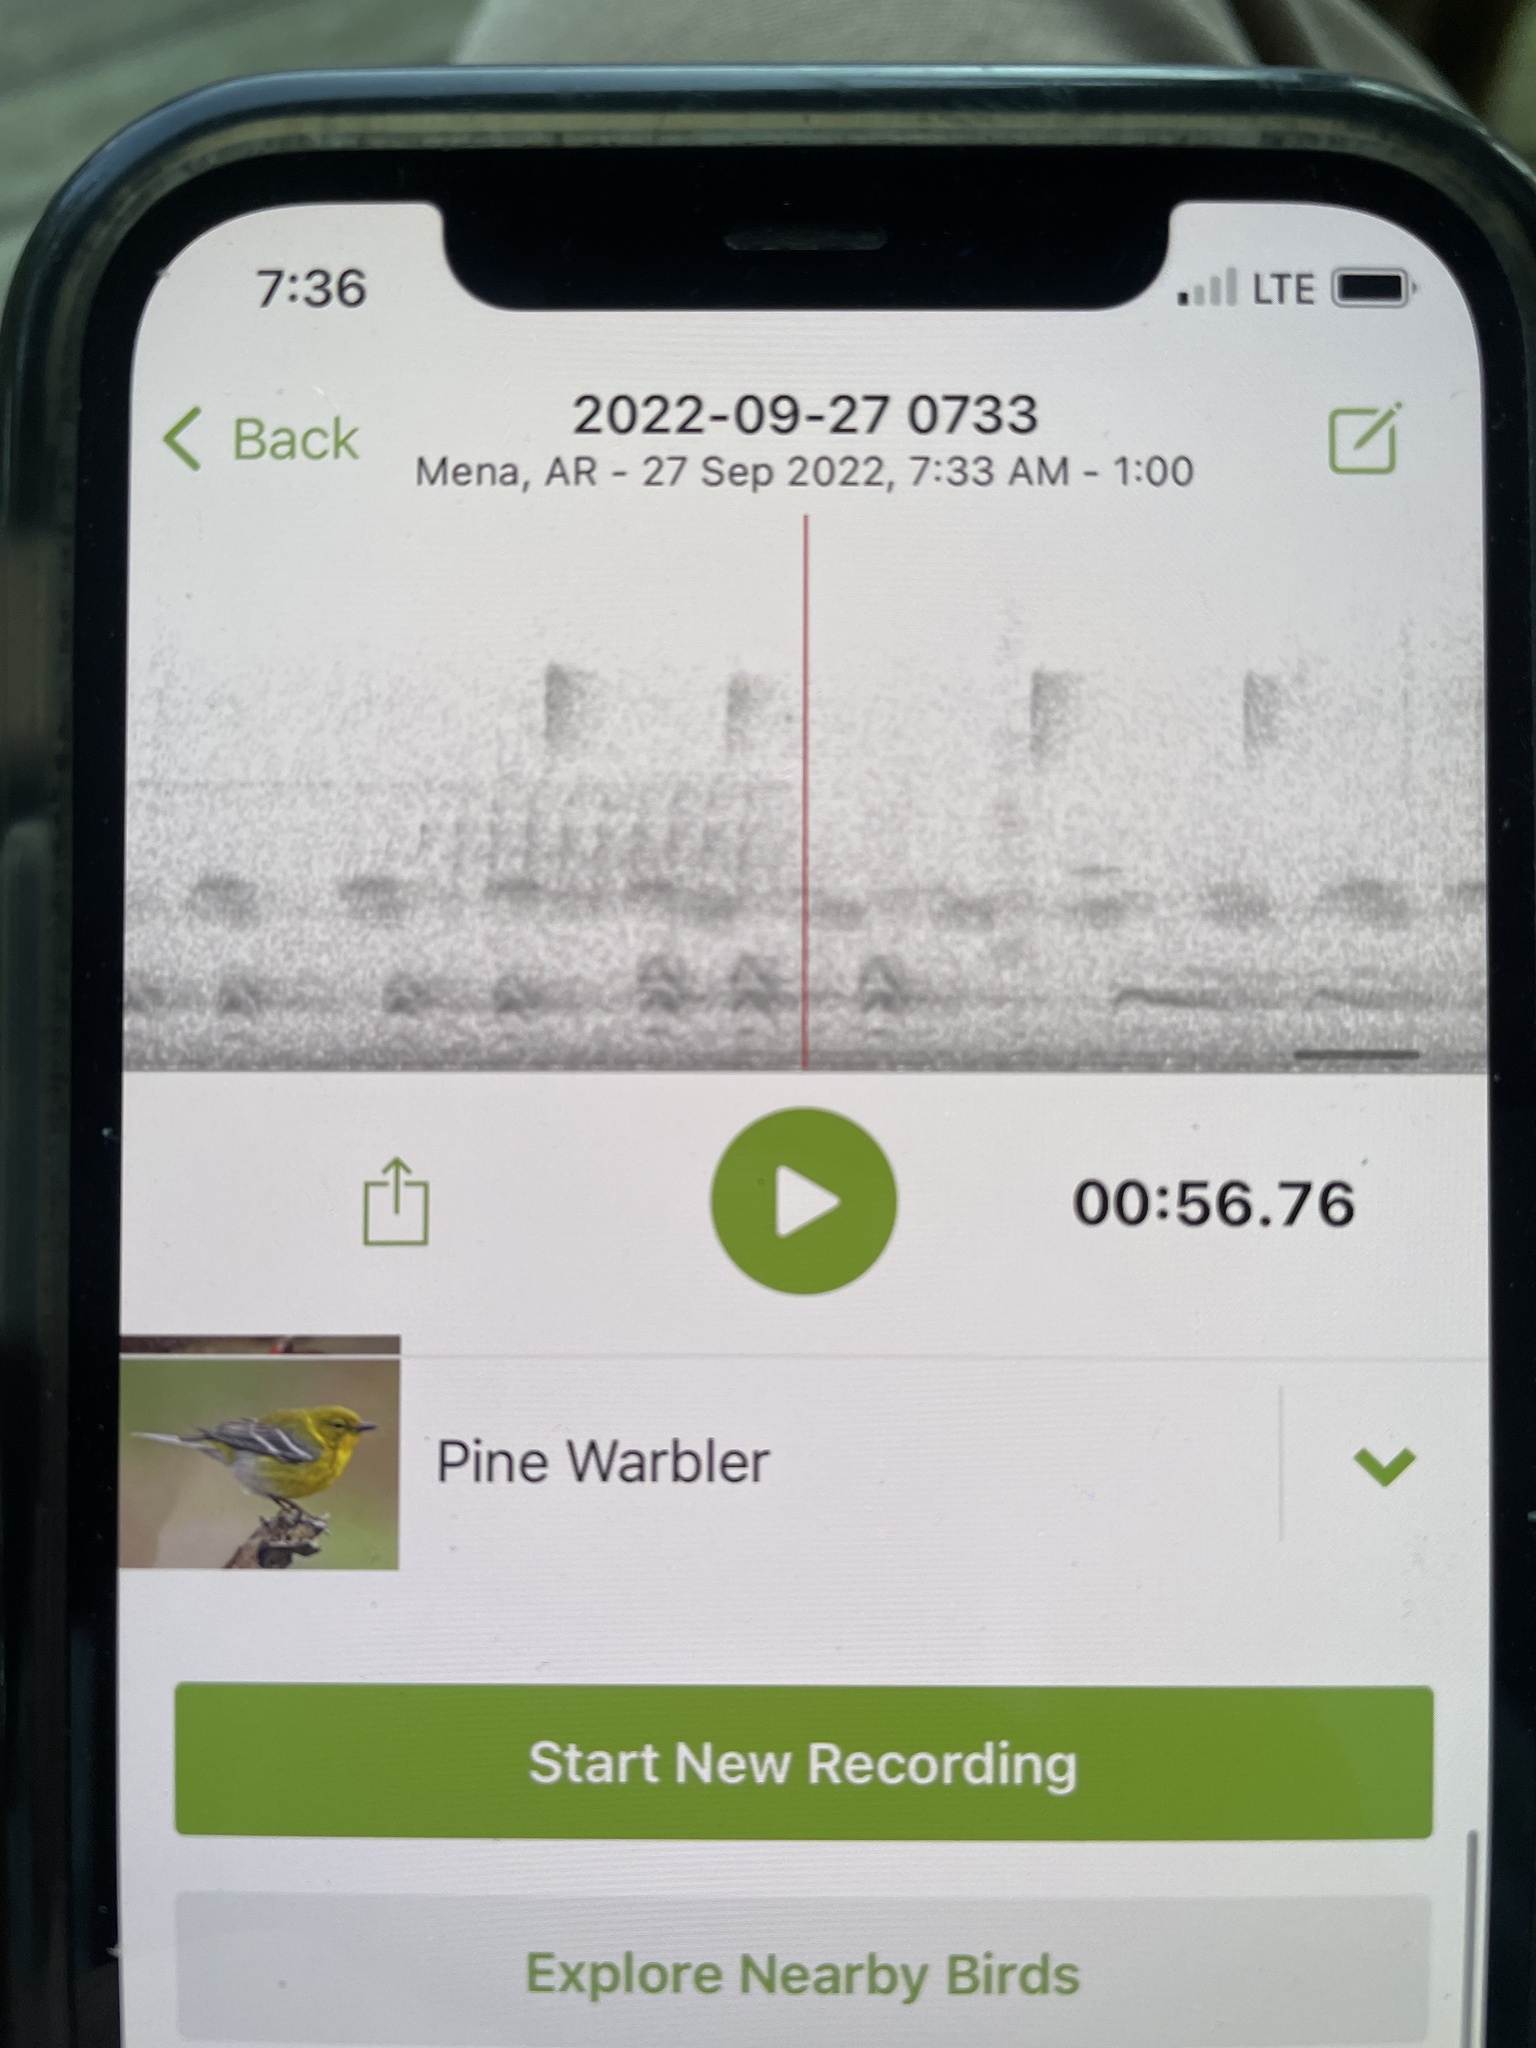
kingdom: Animalia
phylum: Chordata
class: Aves
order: Passeriformes
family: Parulidae
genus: Setophaga
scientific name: Setophaga pinus
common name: Pine warbler
